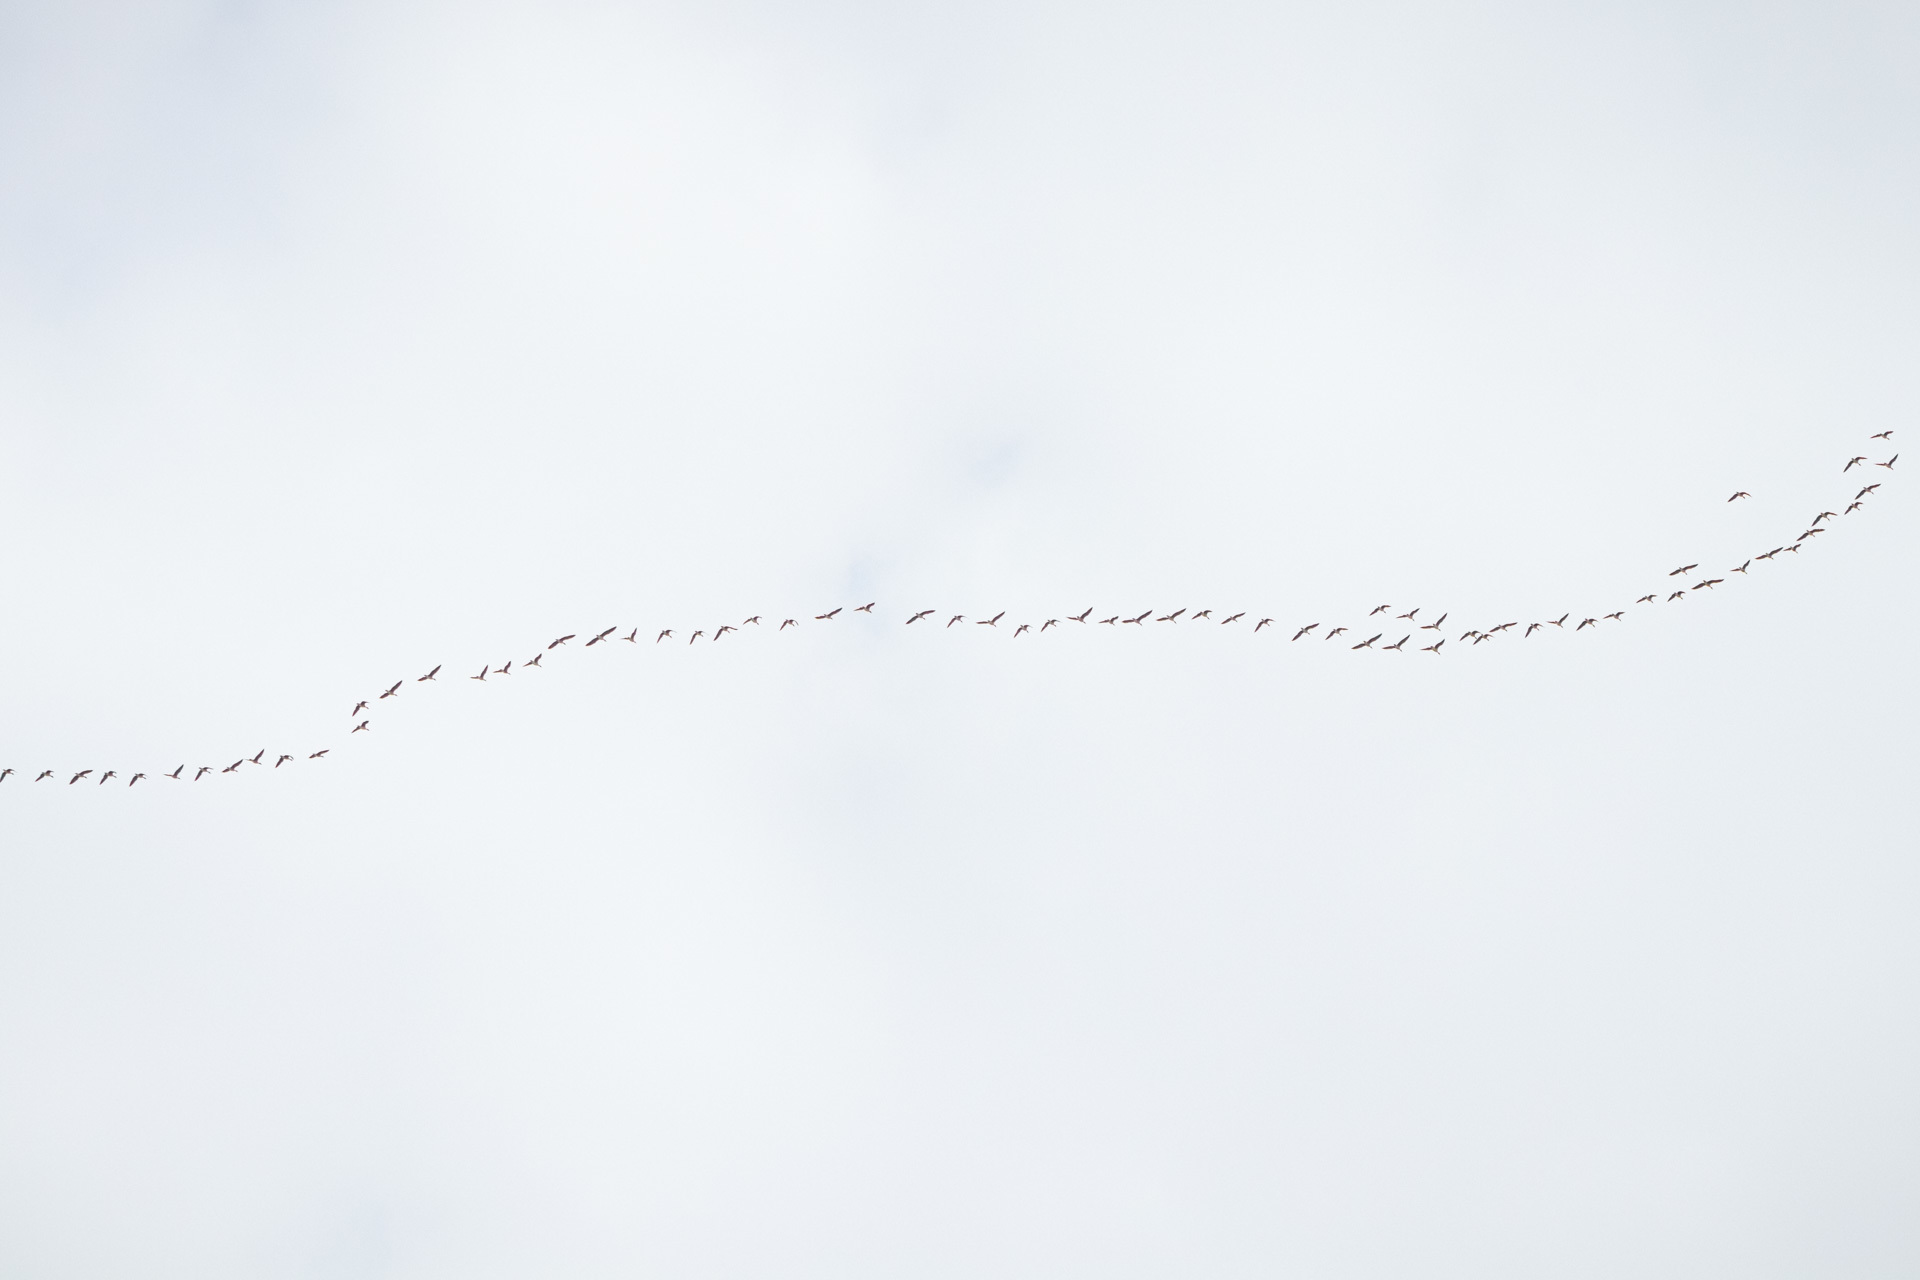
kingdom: Animalia
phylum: Chordata
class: Aves
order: Anseriformes
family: Anatidae
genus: Anser
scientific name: Anser fabalis
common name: Bean goose
